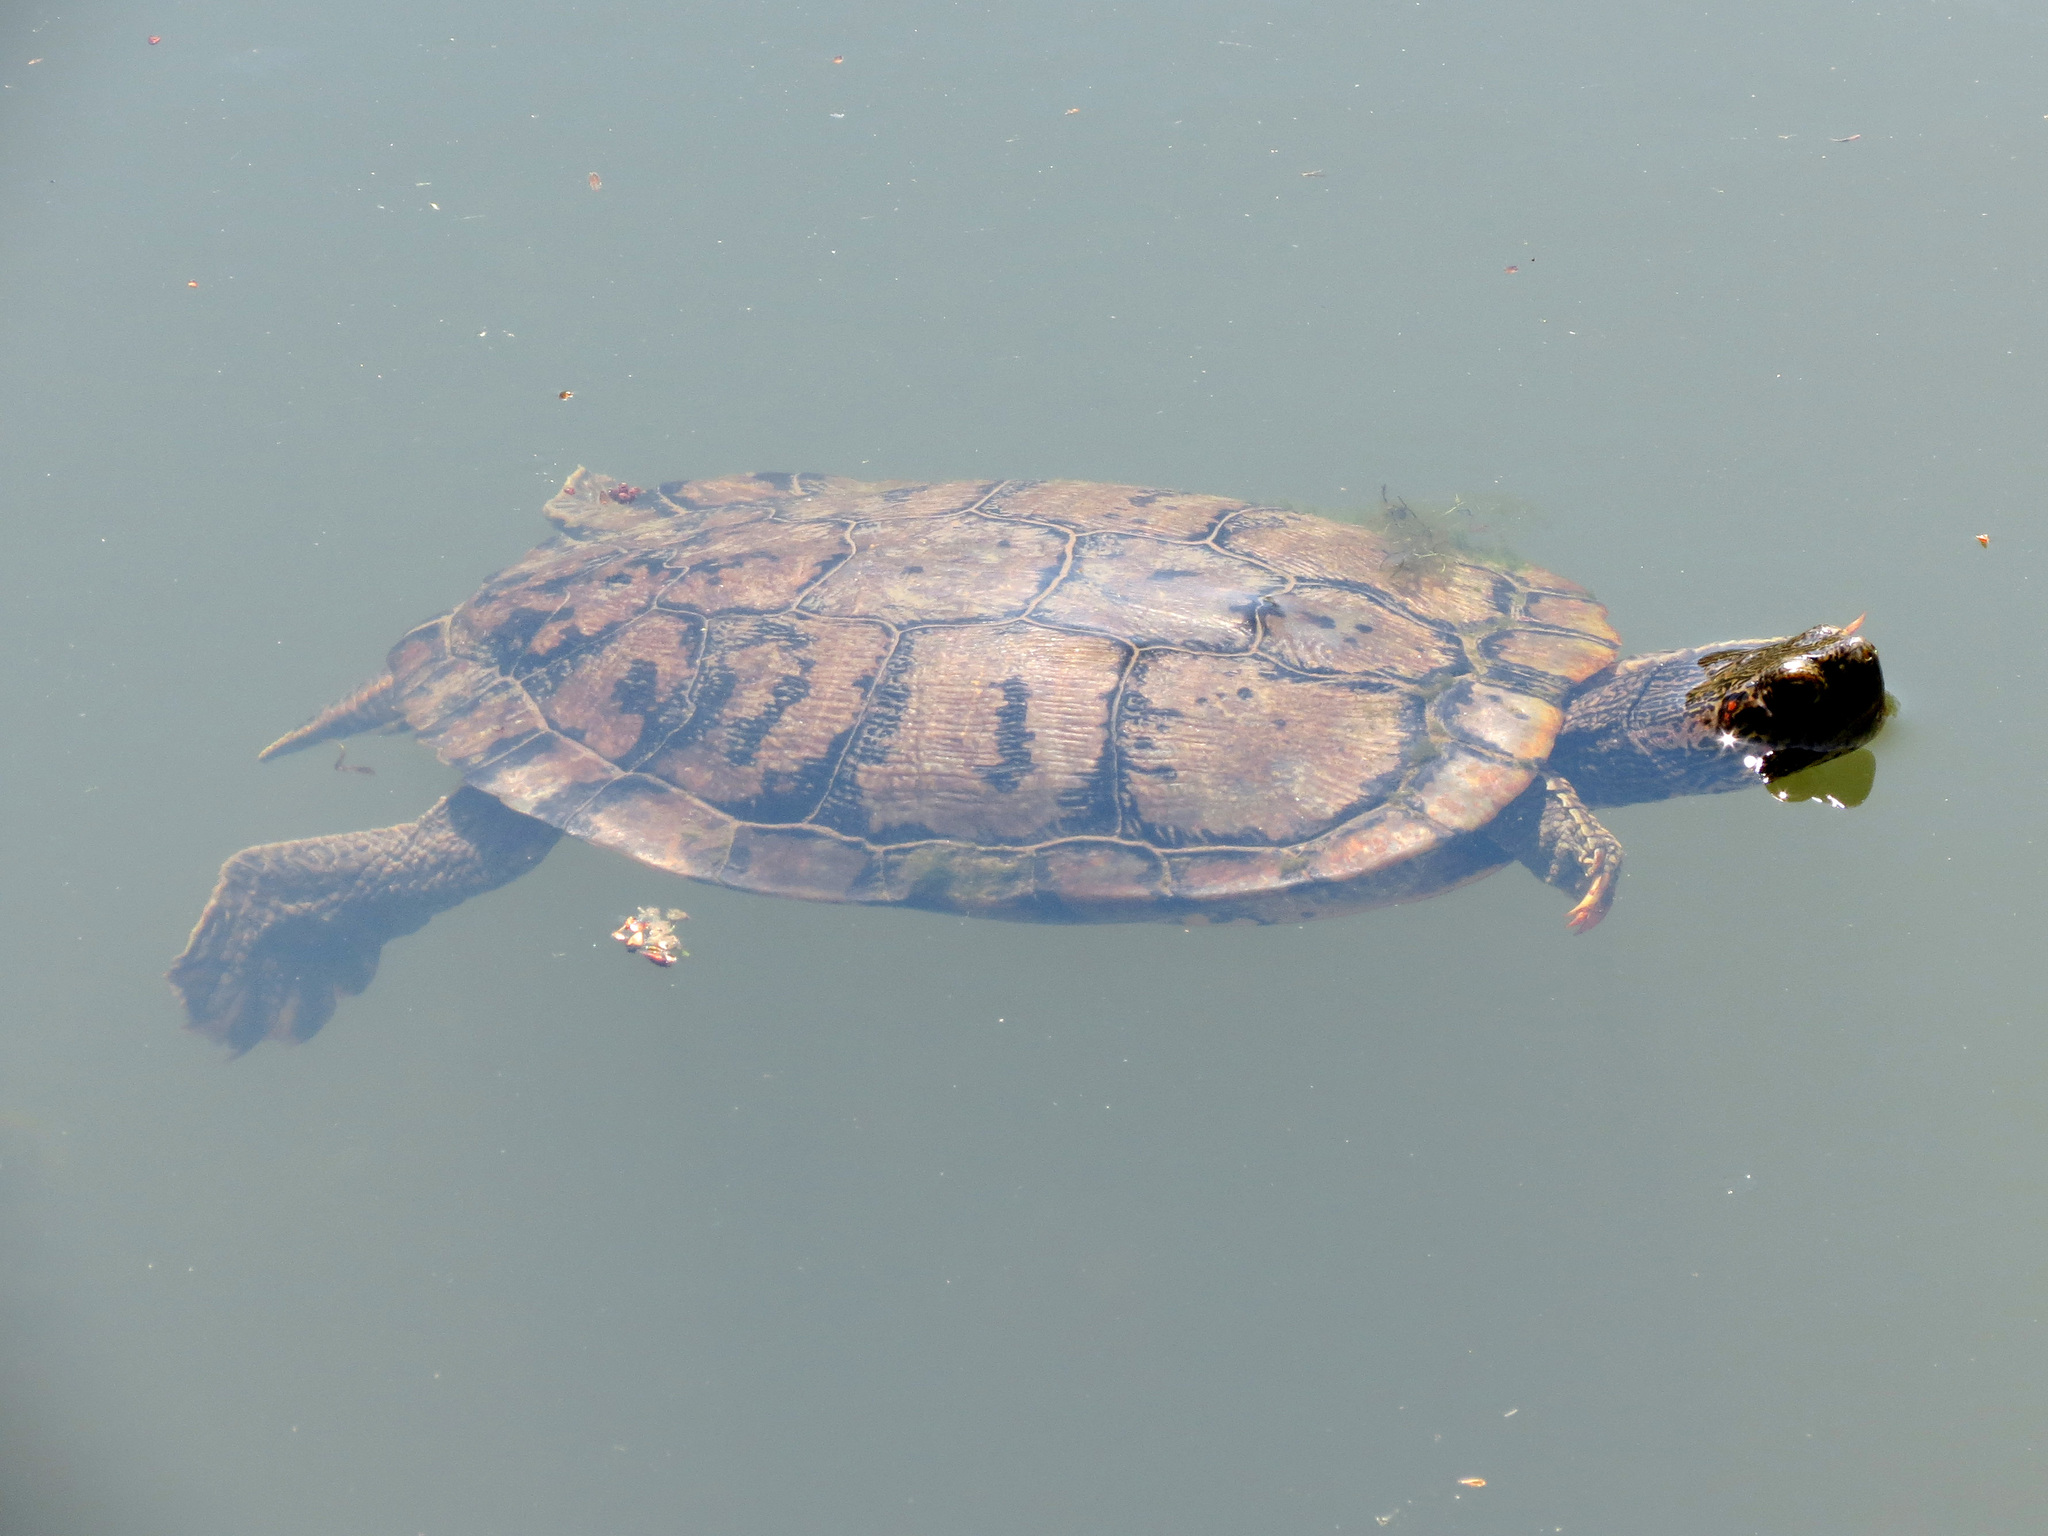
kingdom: Animalia
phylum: Chordata
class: Testudines
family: Emydidae
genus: Trachemys
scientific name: Trachemys scripta
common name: Slider
